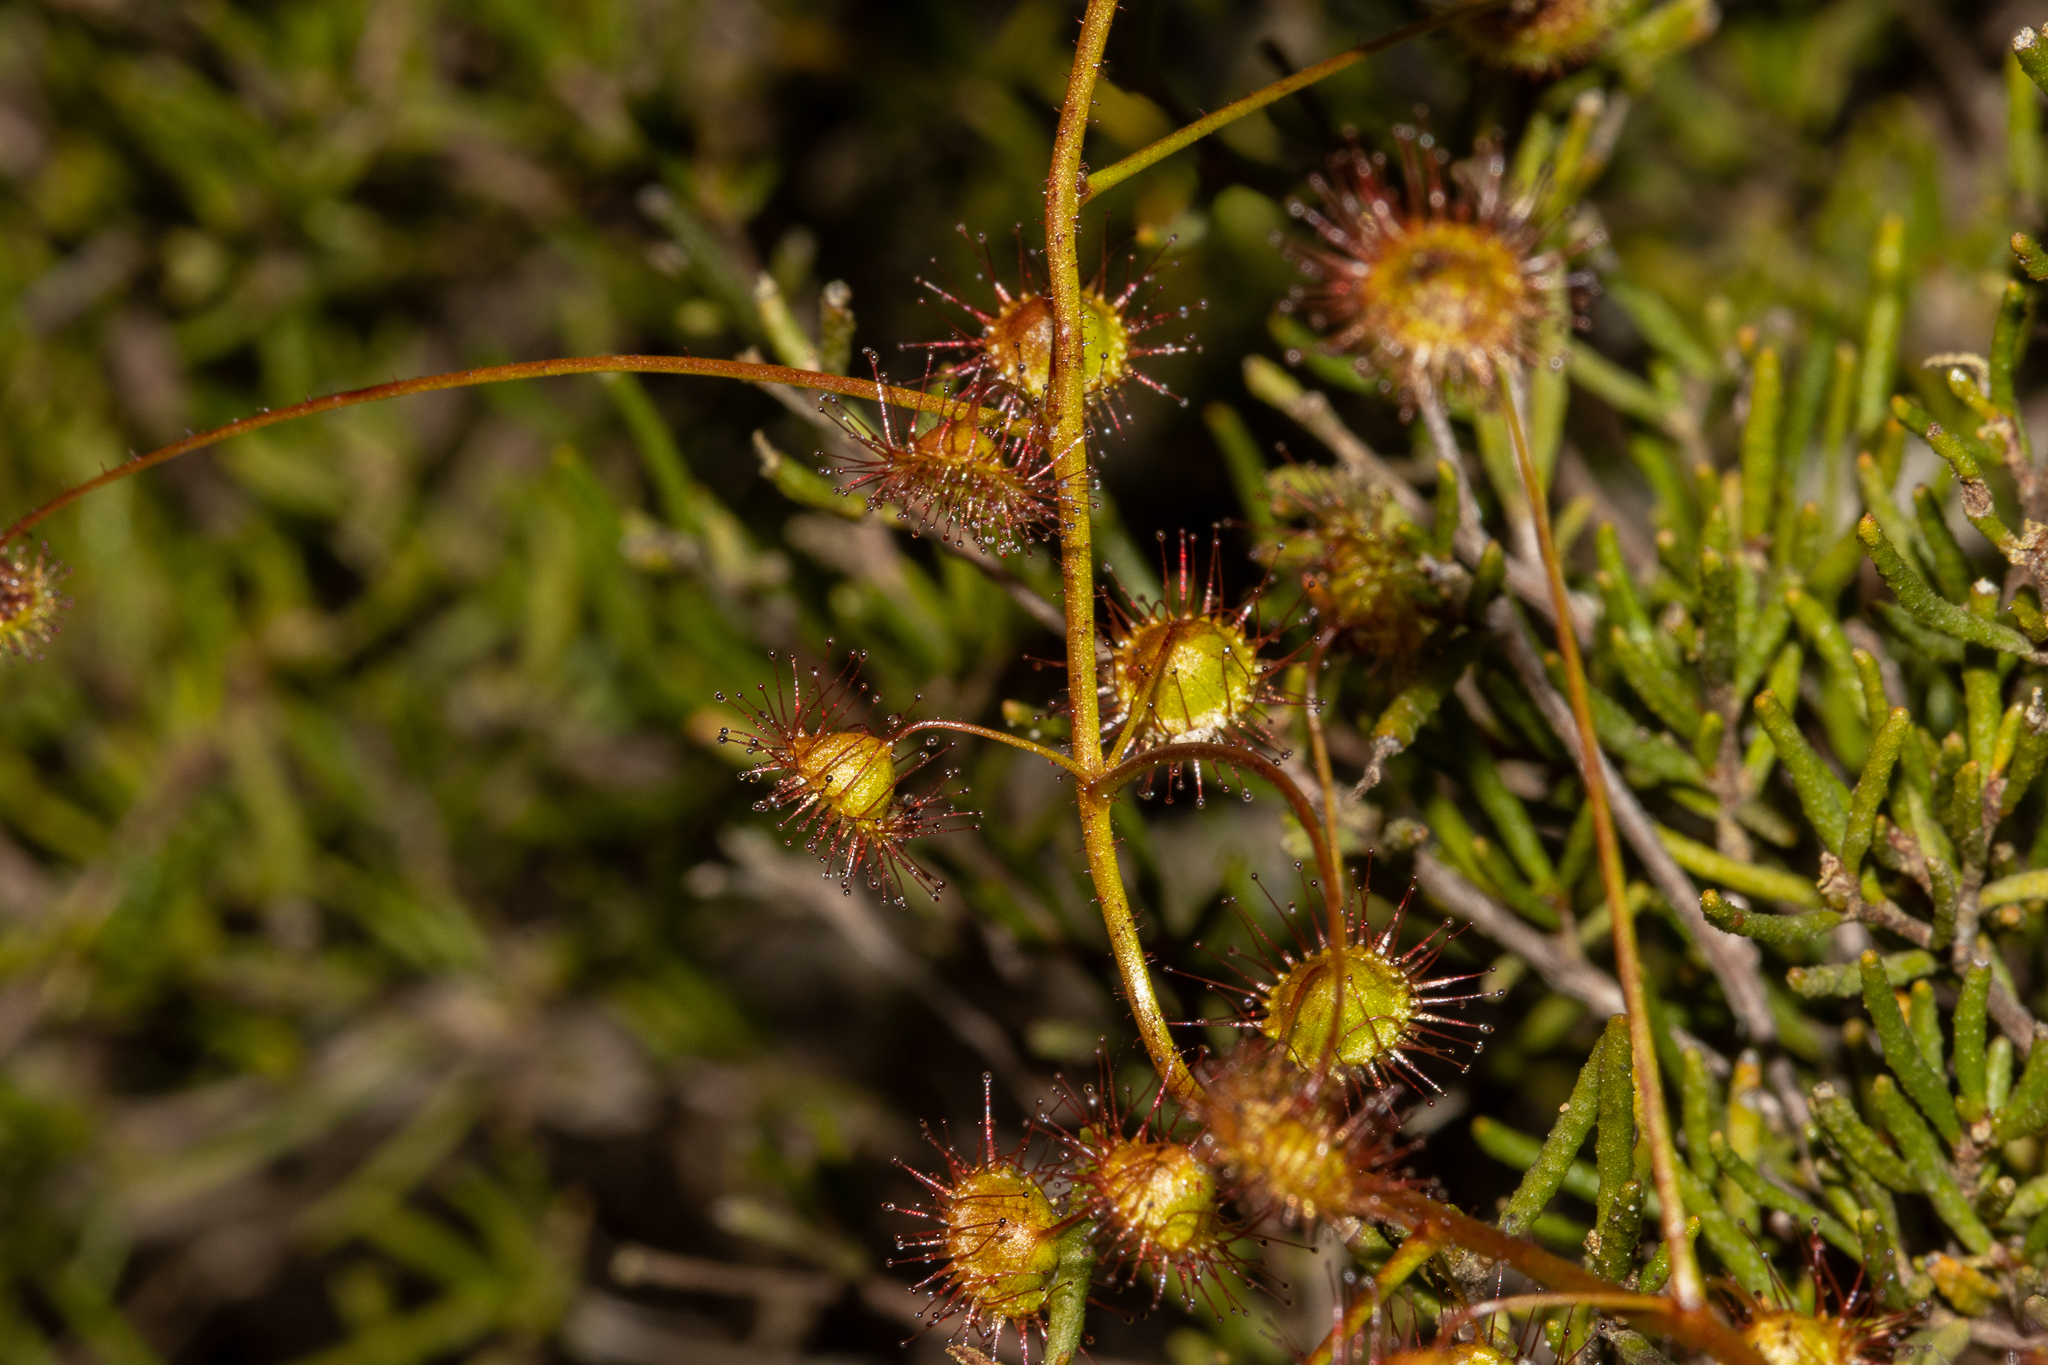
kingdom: Plantae
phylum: Tracheophyta
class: Magnoliopsida
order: Caryophyllales
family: Droseraceae
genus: Drosera
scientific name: Drosera planchonii
